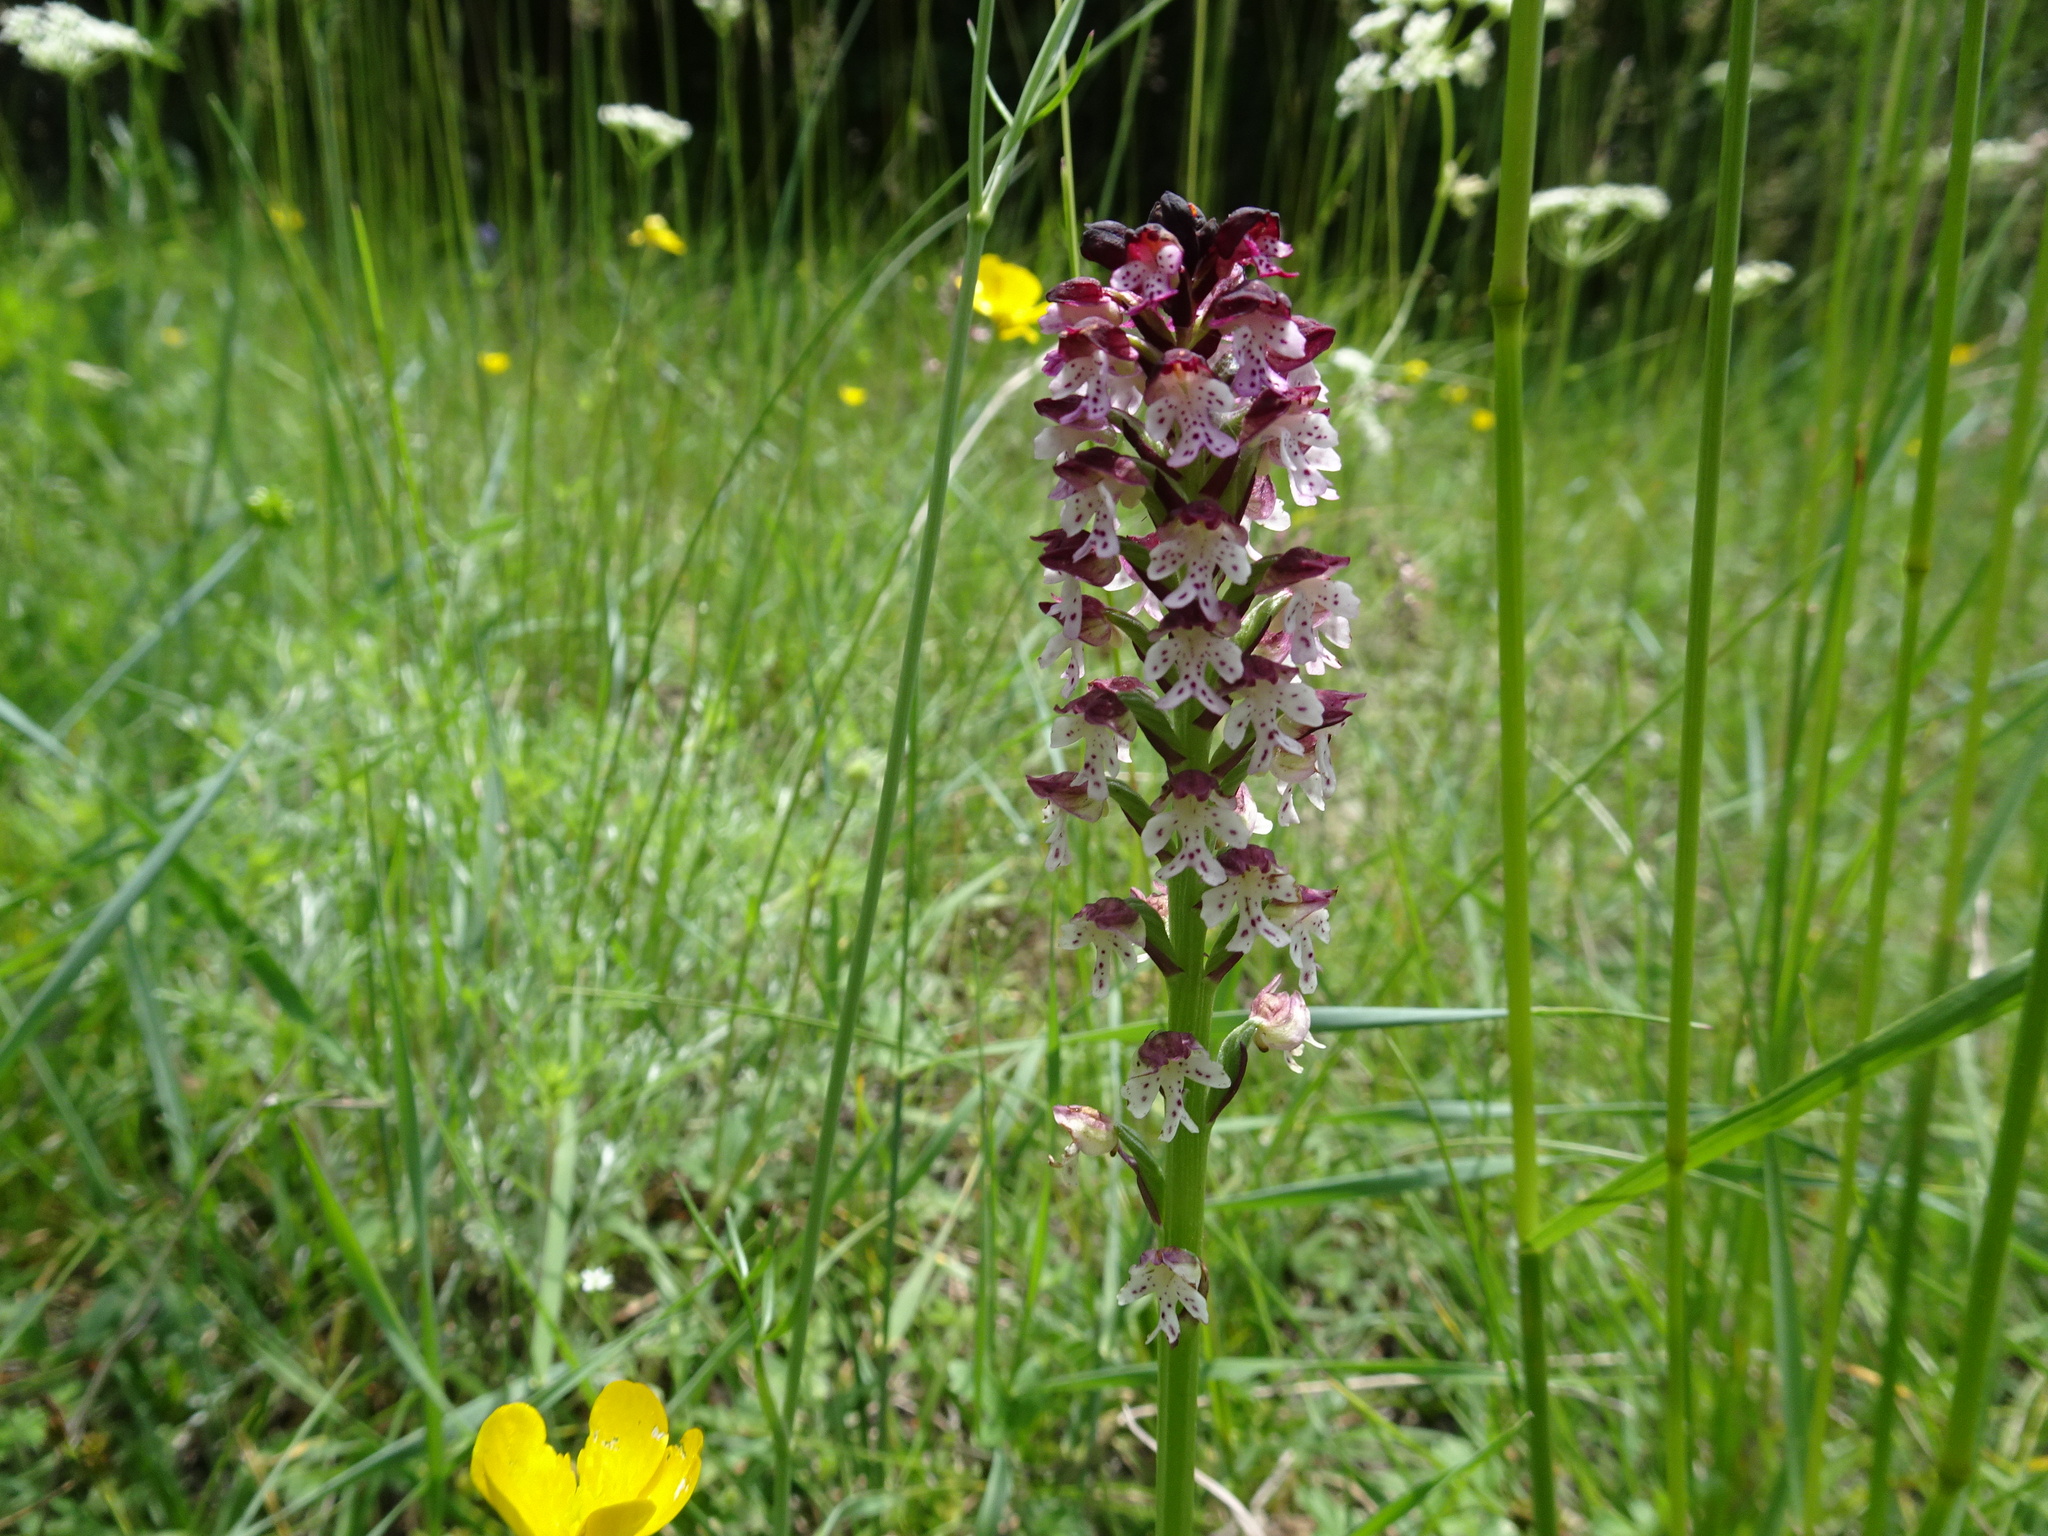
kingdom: Plantae
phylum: Tracheophyta
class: Liliopsida
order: Asparagales
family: Orchidaceae
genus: Neotinea
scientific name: Neotinea ustulata
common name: Burnt orchid
